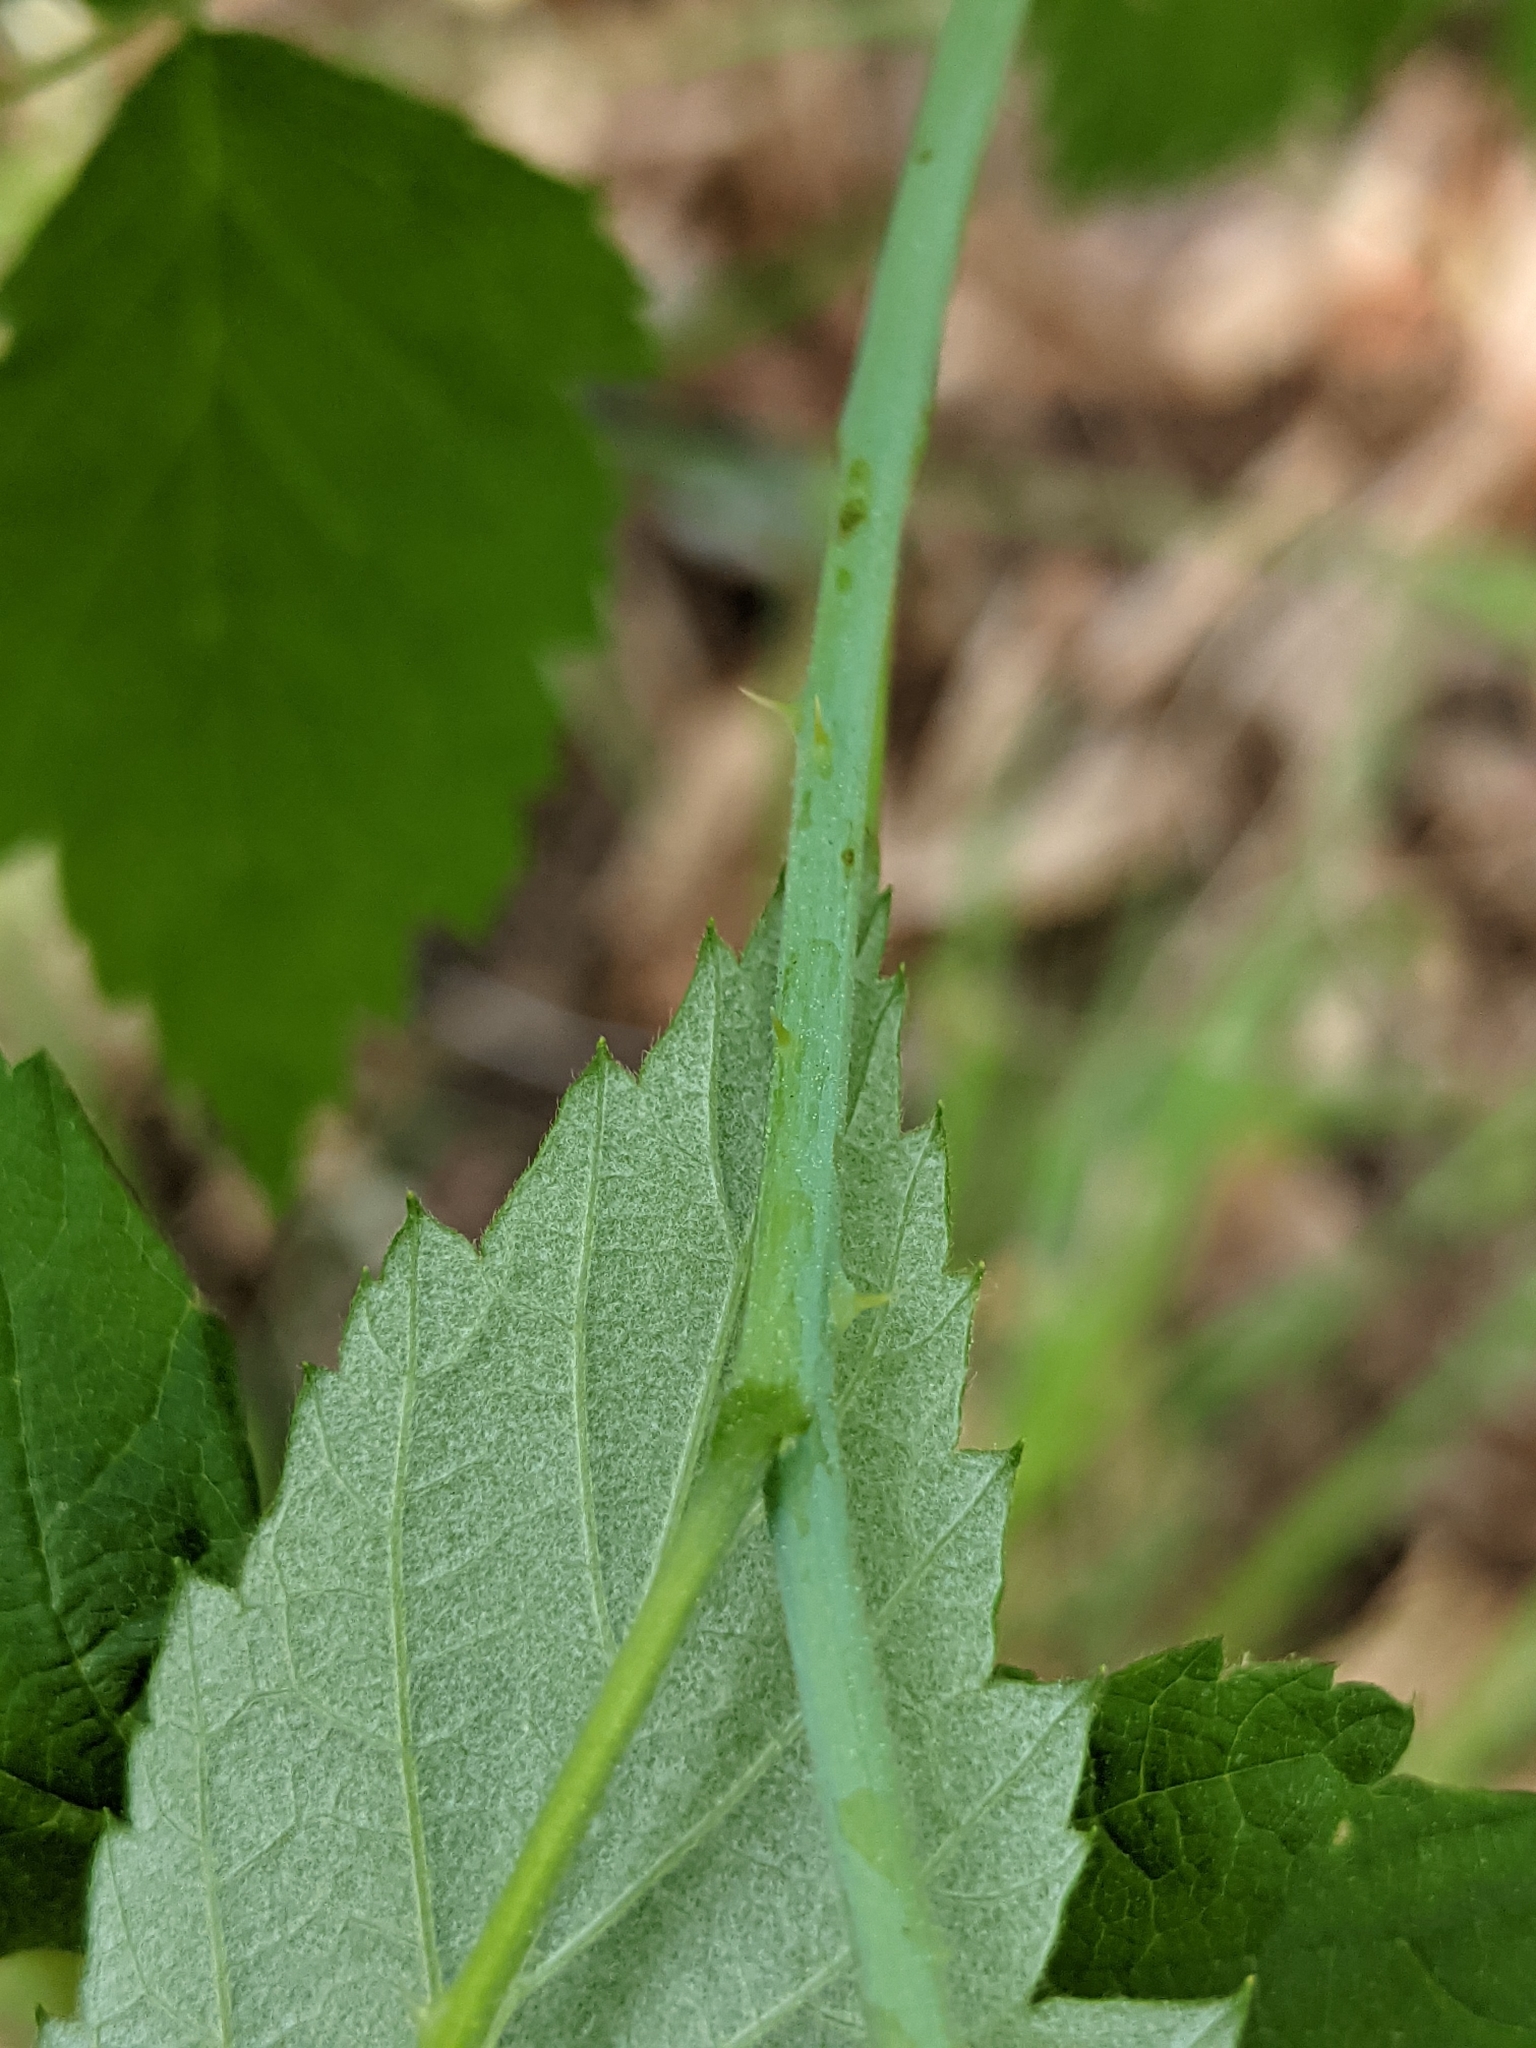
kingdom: Plantae
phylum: Tracheophyta
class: Magnoliopsida
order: Rosales
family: Rosaceae
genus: Rubus
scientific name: Rubus occidentalis
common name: Black raspberry
